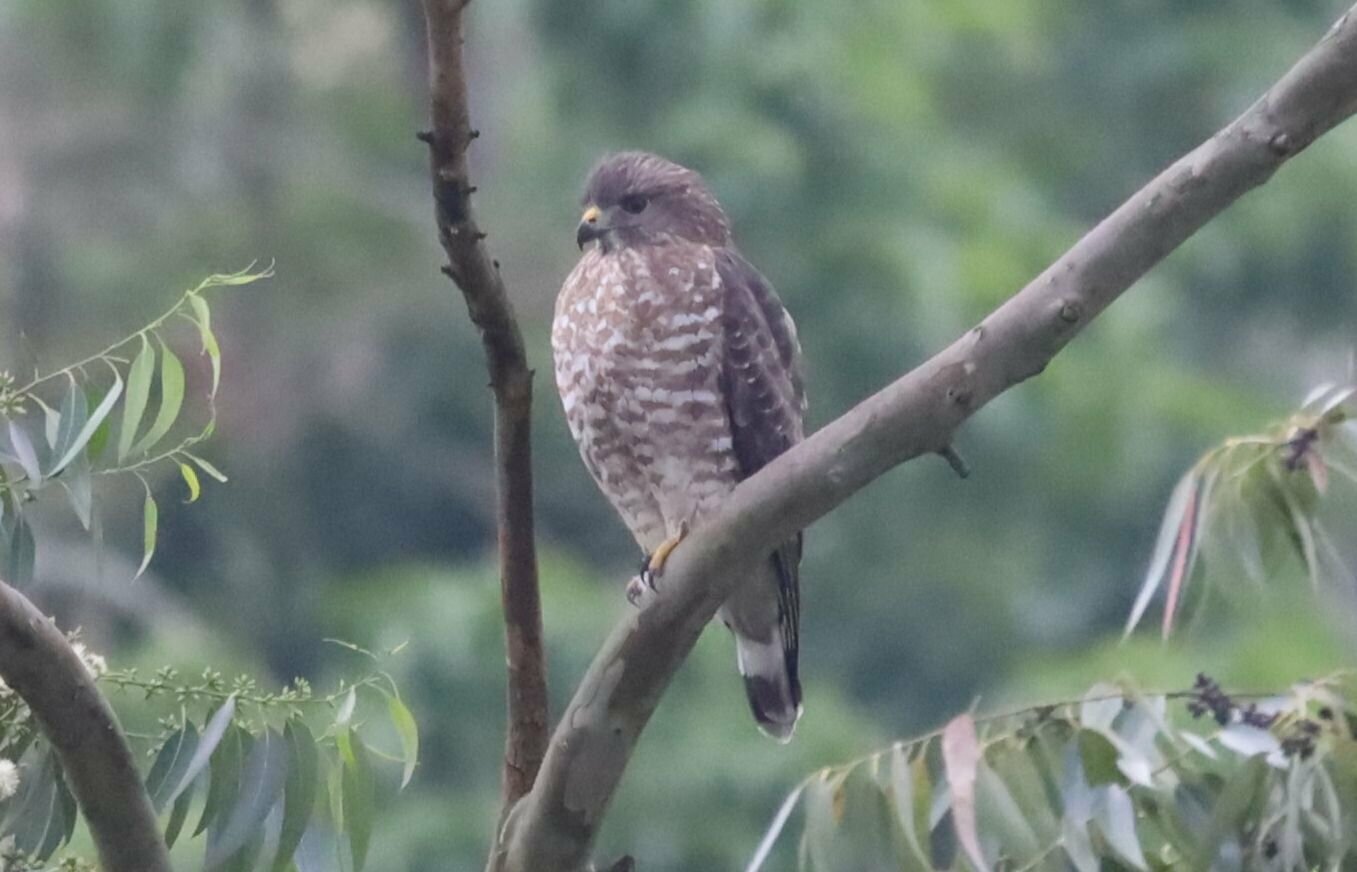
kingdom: Animalia
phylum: Chordata
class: Aves
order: Accipitriformes
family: Accipitridae
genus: Buteo
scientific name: Buteo platypterus
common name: Broad-winged hawk
